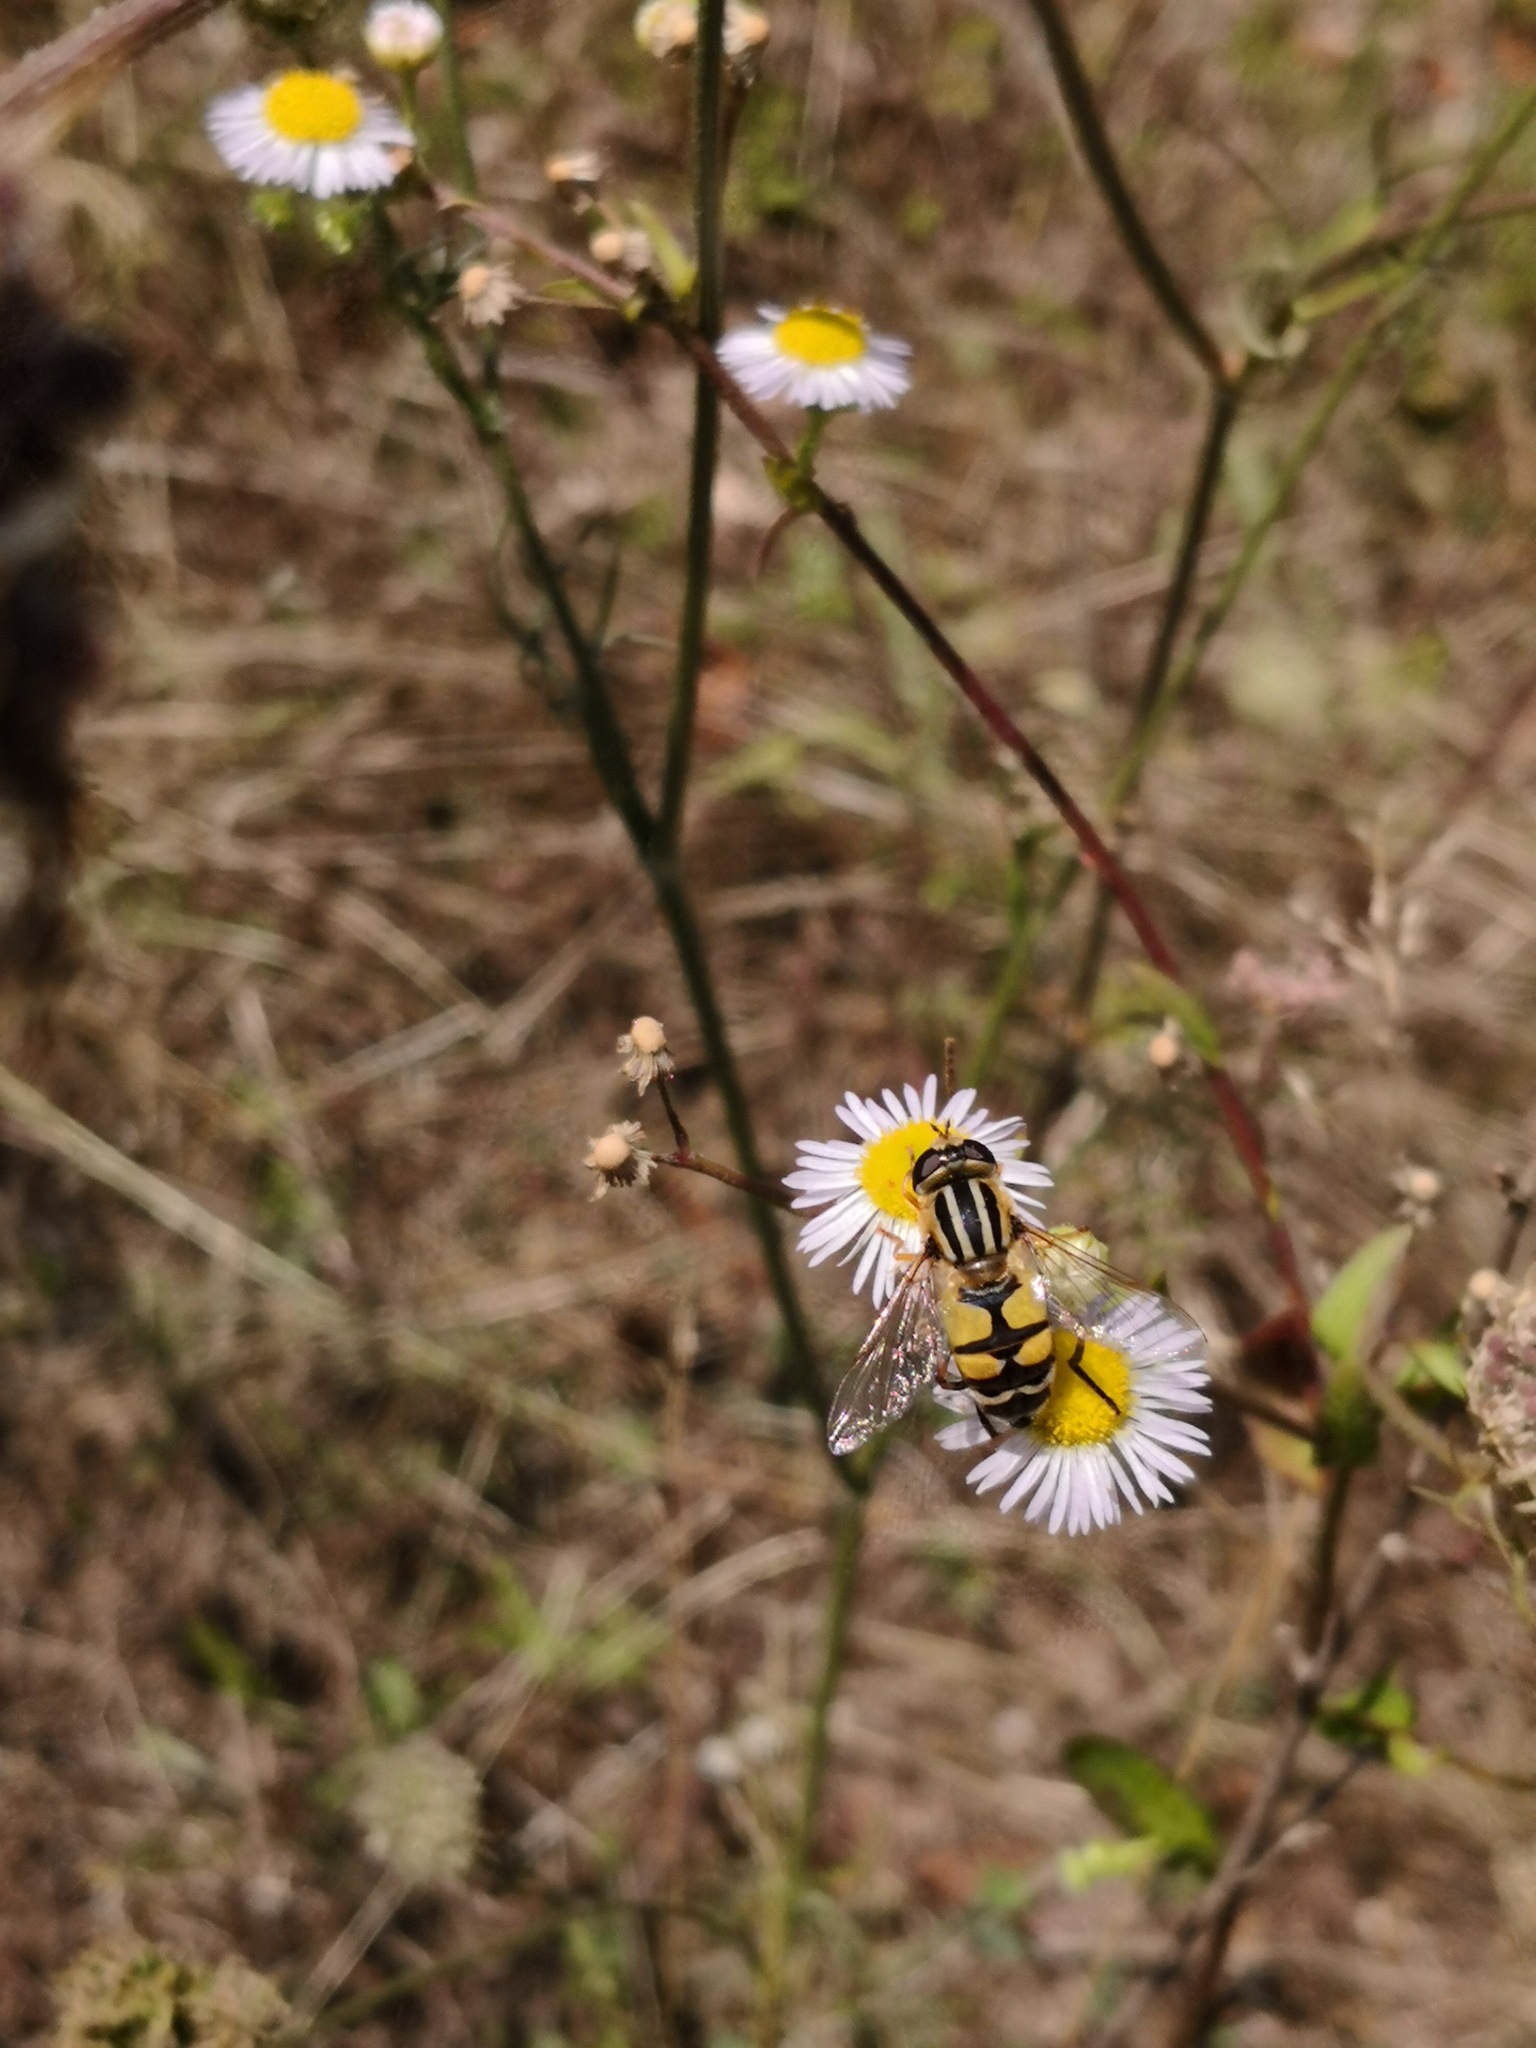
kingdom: Animalia
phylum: Arthropoda
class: Insecta
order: Diptera
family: Syrphidae
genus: Helophilus
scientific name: Helophilus trivittatus
